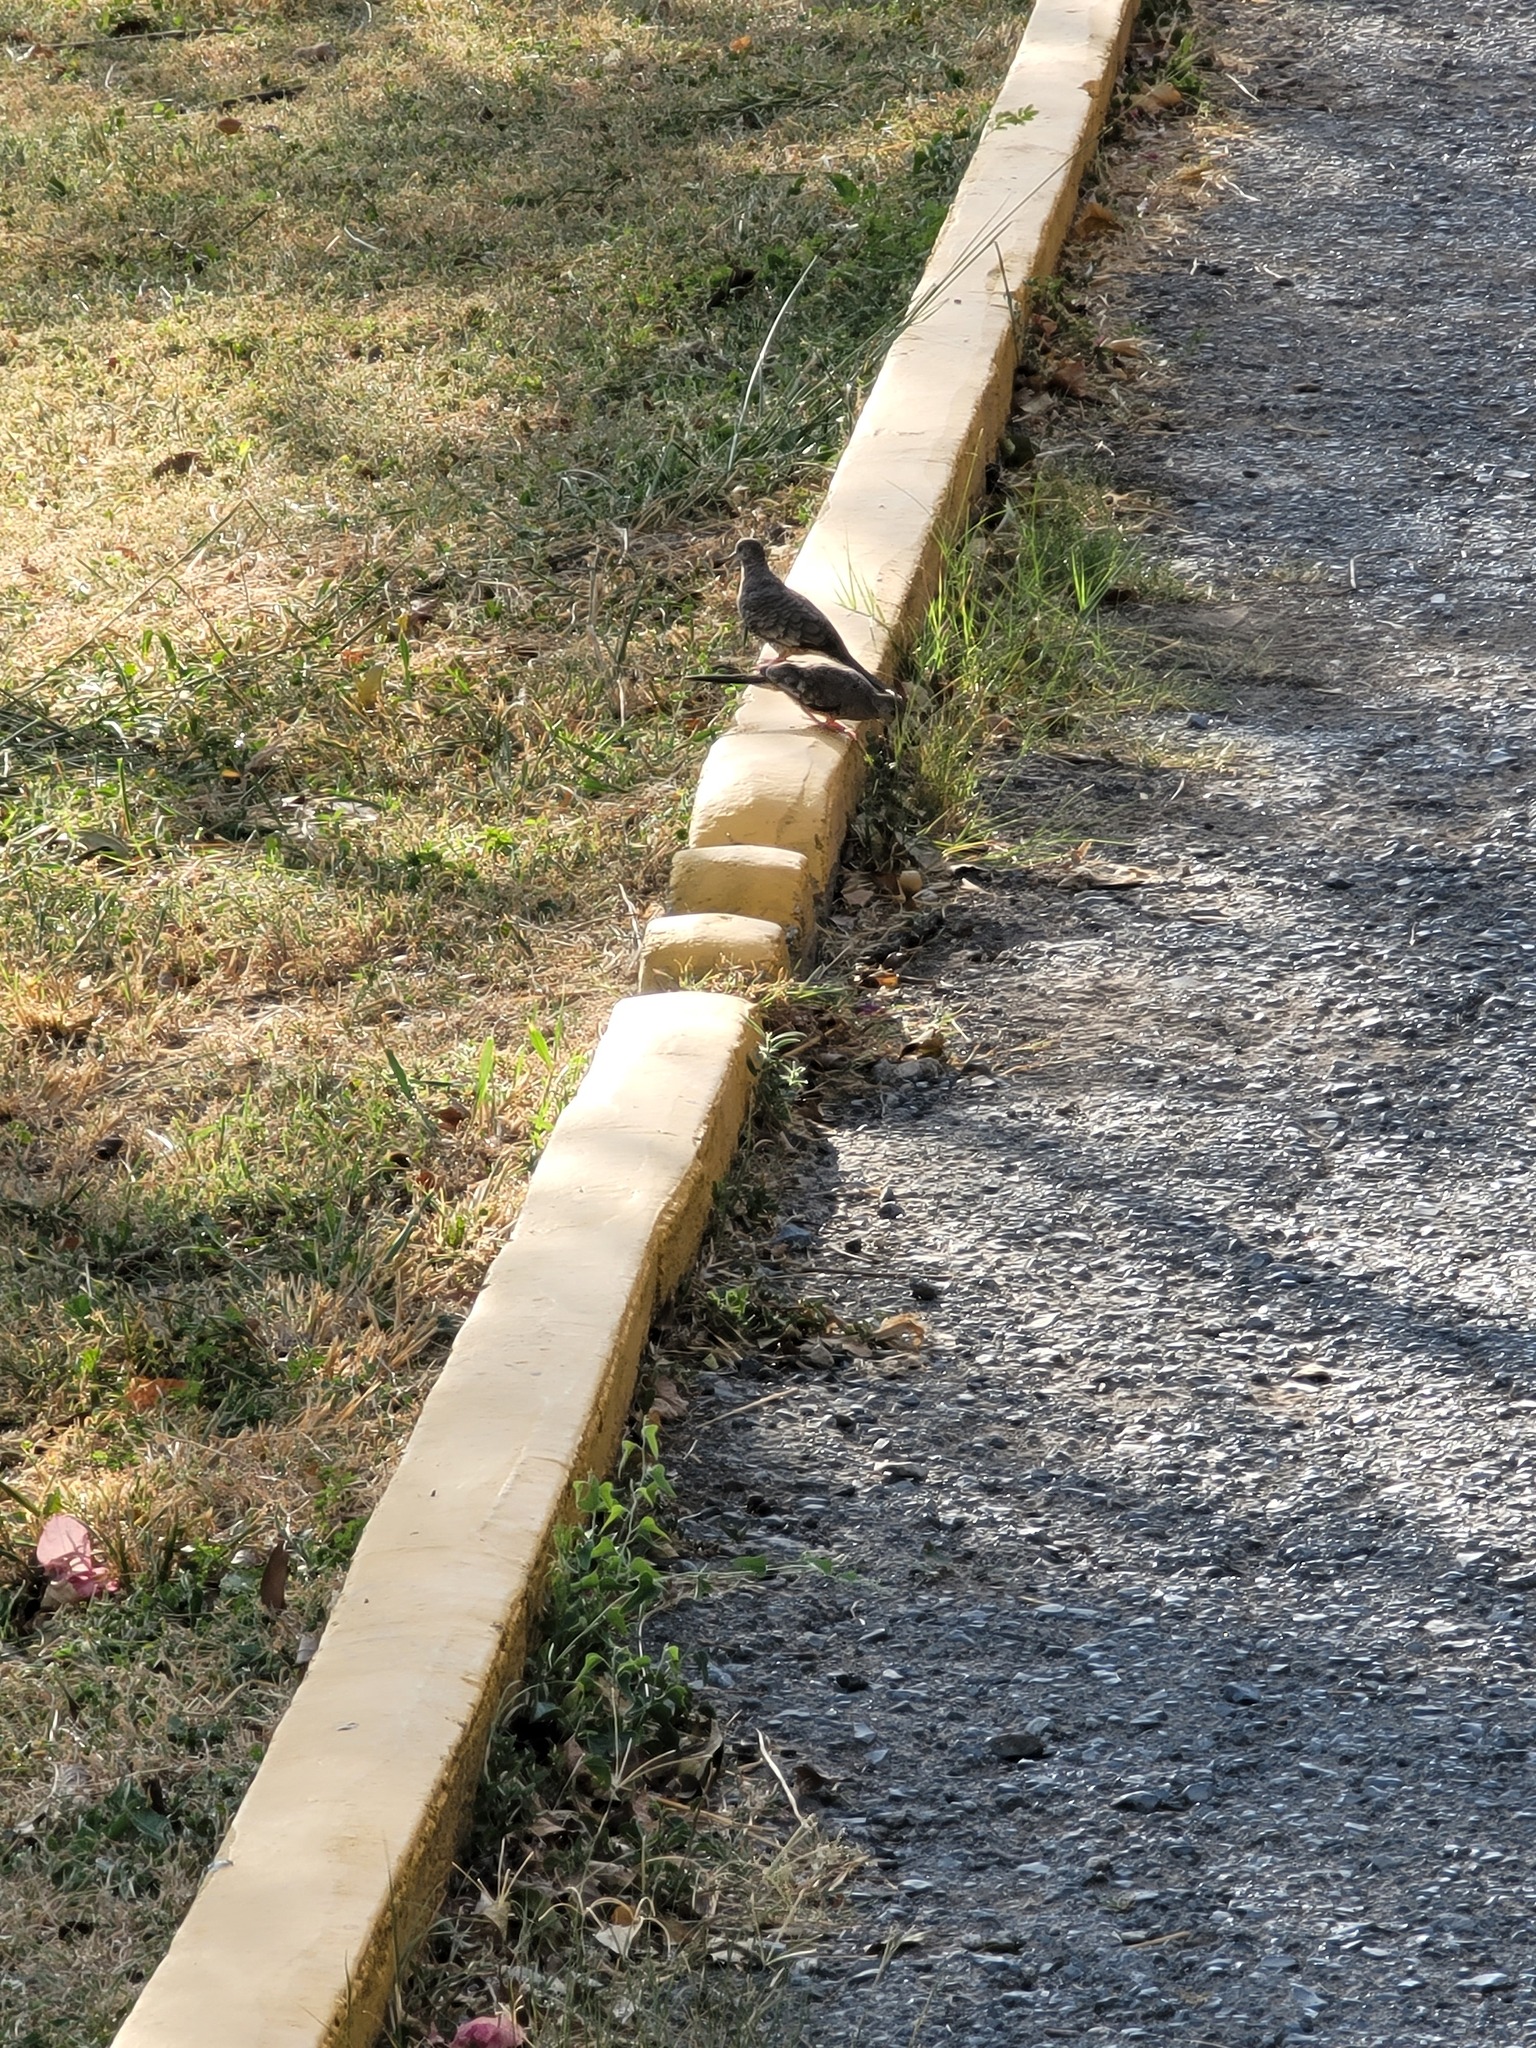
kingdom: Animalia
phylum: Chordata
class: Aves
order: Columbiformes
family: Columbidae
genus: Columbina
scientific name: Columbina inca
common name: Inca dove
